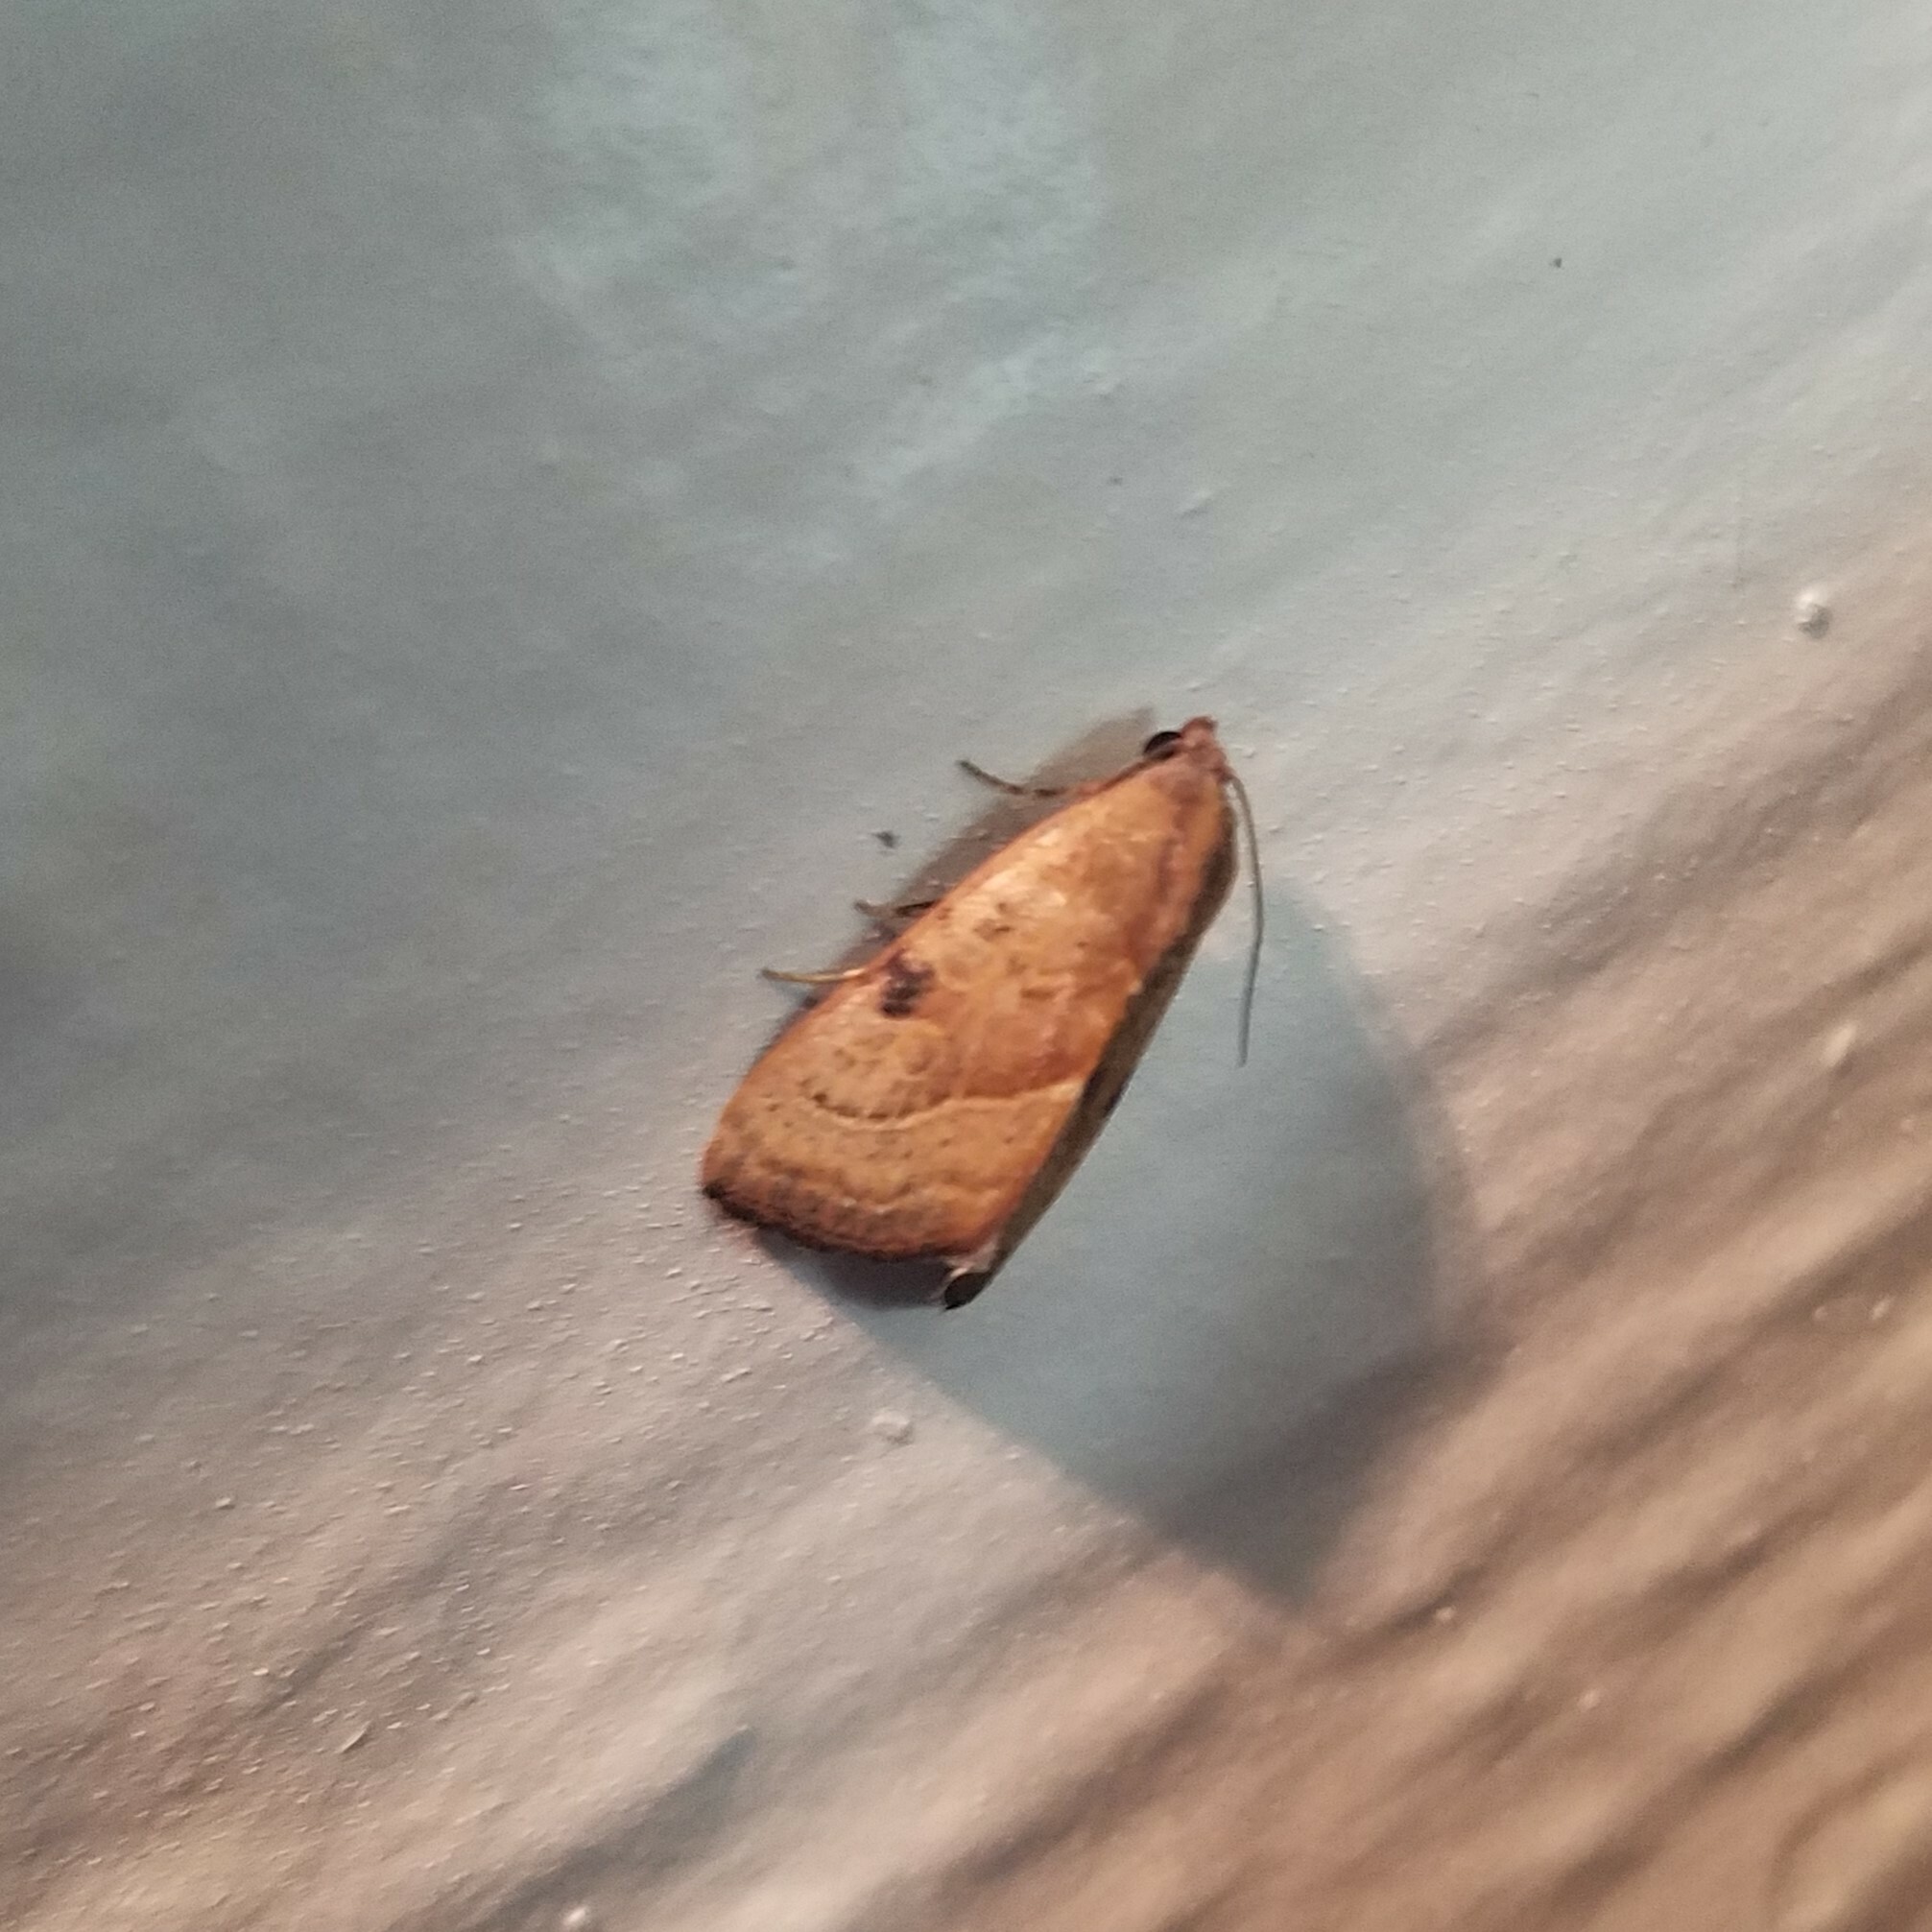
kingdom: Animalia
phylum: Arthropoda
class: Insecta
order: Lepidoptera
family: Noctuidae
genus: Galgula
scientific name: Galgula partita
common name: Wedgeling
